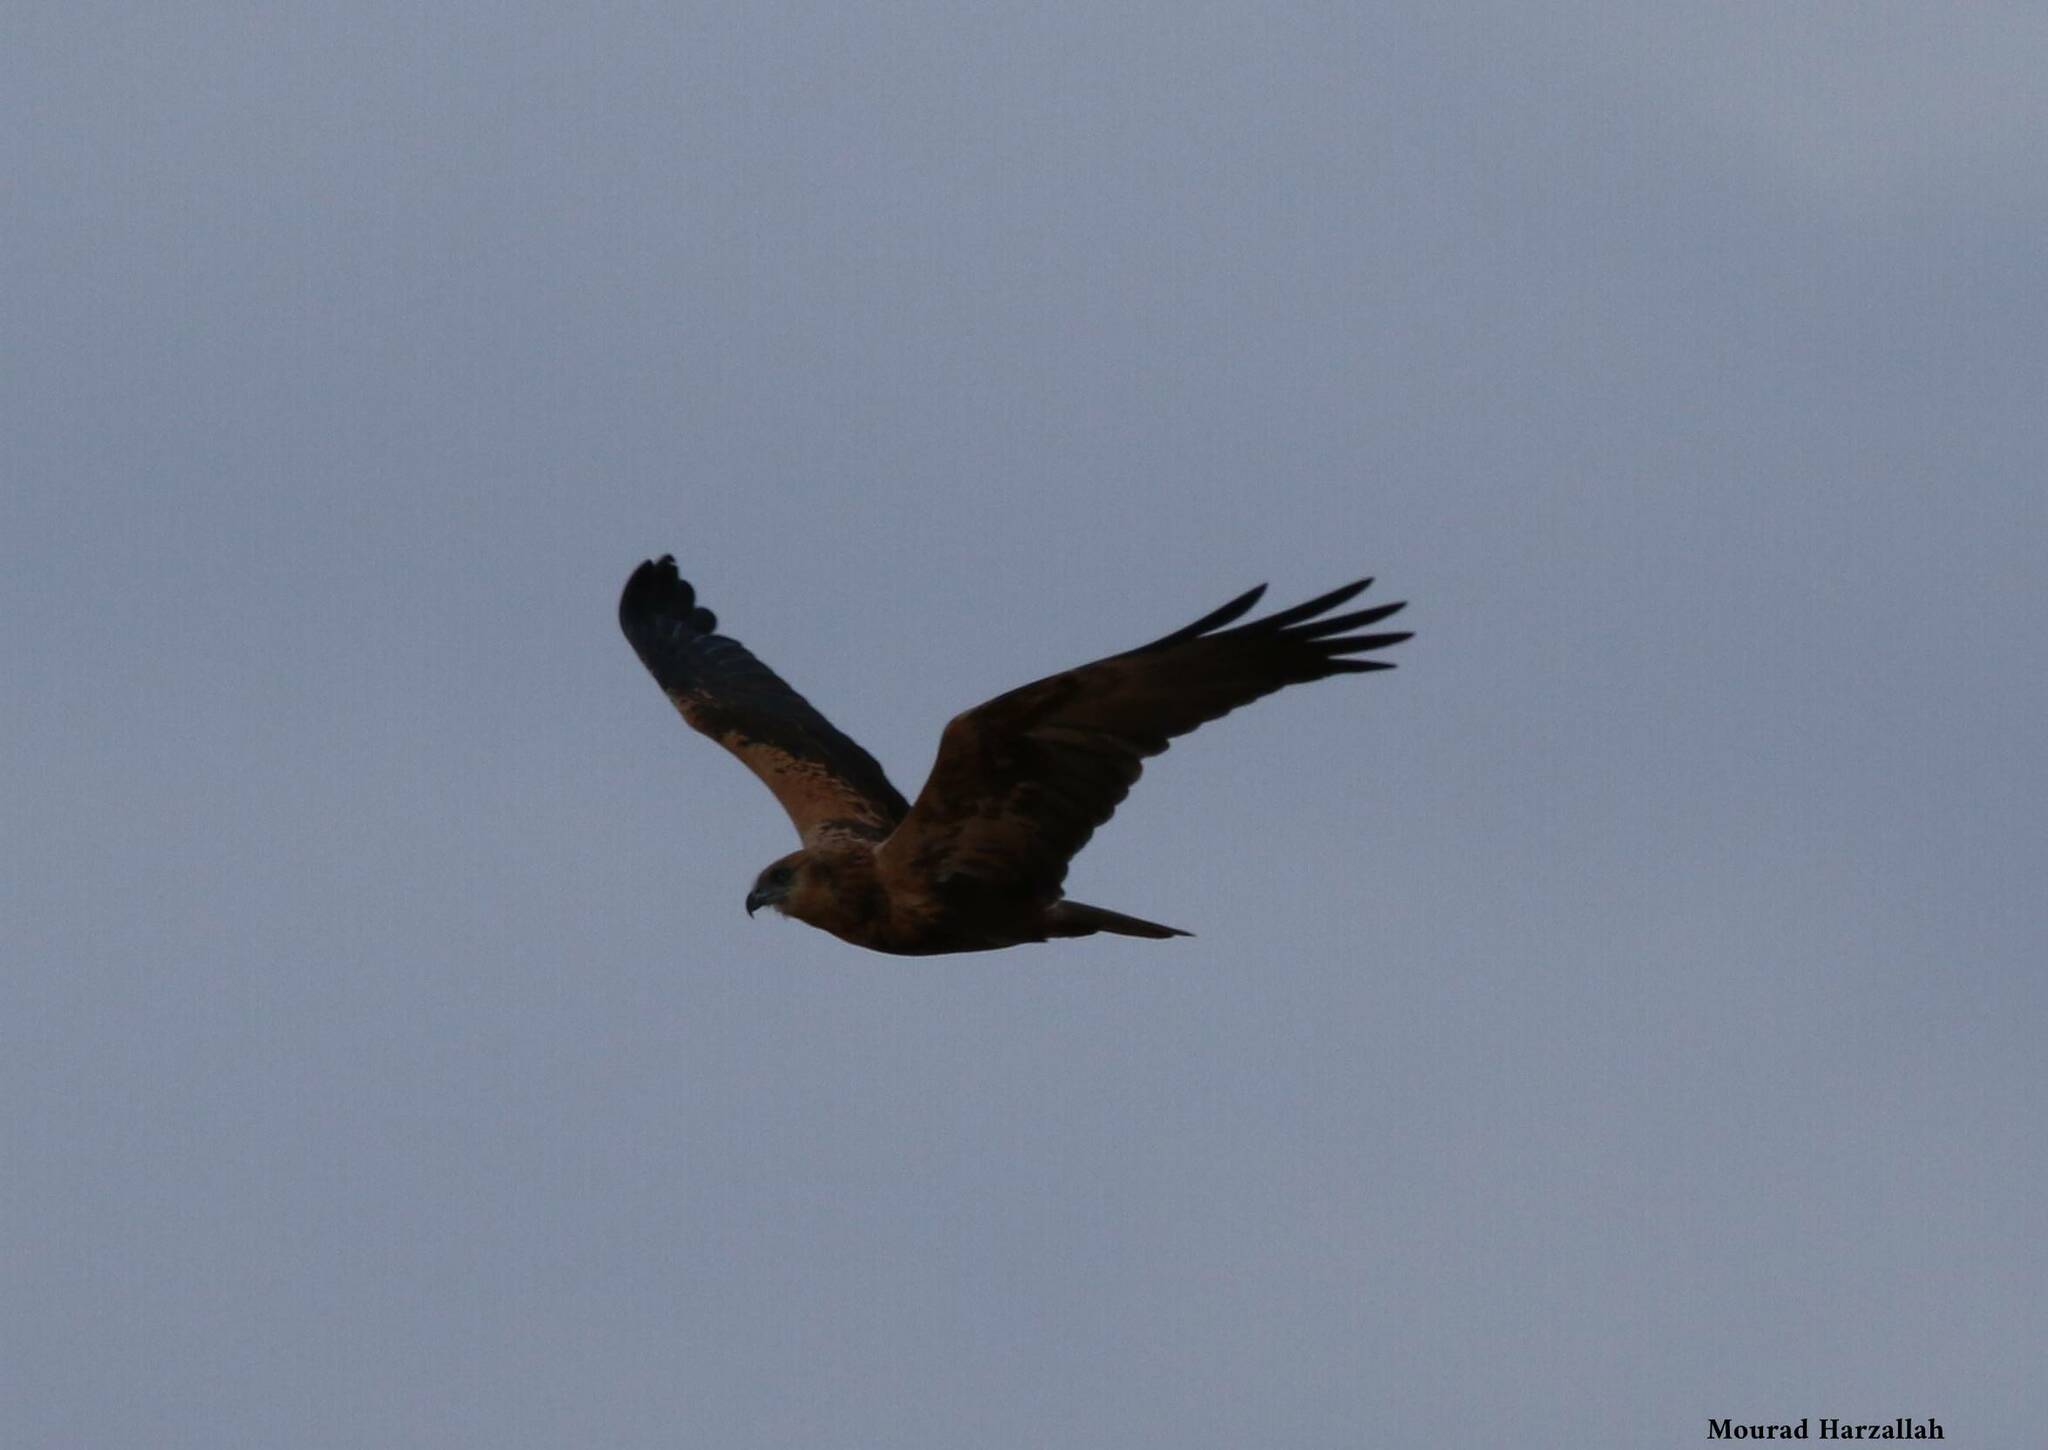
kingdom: Animalia
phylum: Chordata
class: Aves
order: Accipitriformes
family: Accipitridae
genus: Circus
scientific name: Circus aeruginosus
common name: Western marsh harrier
